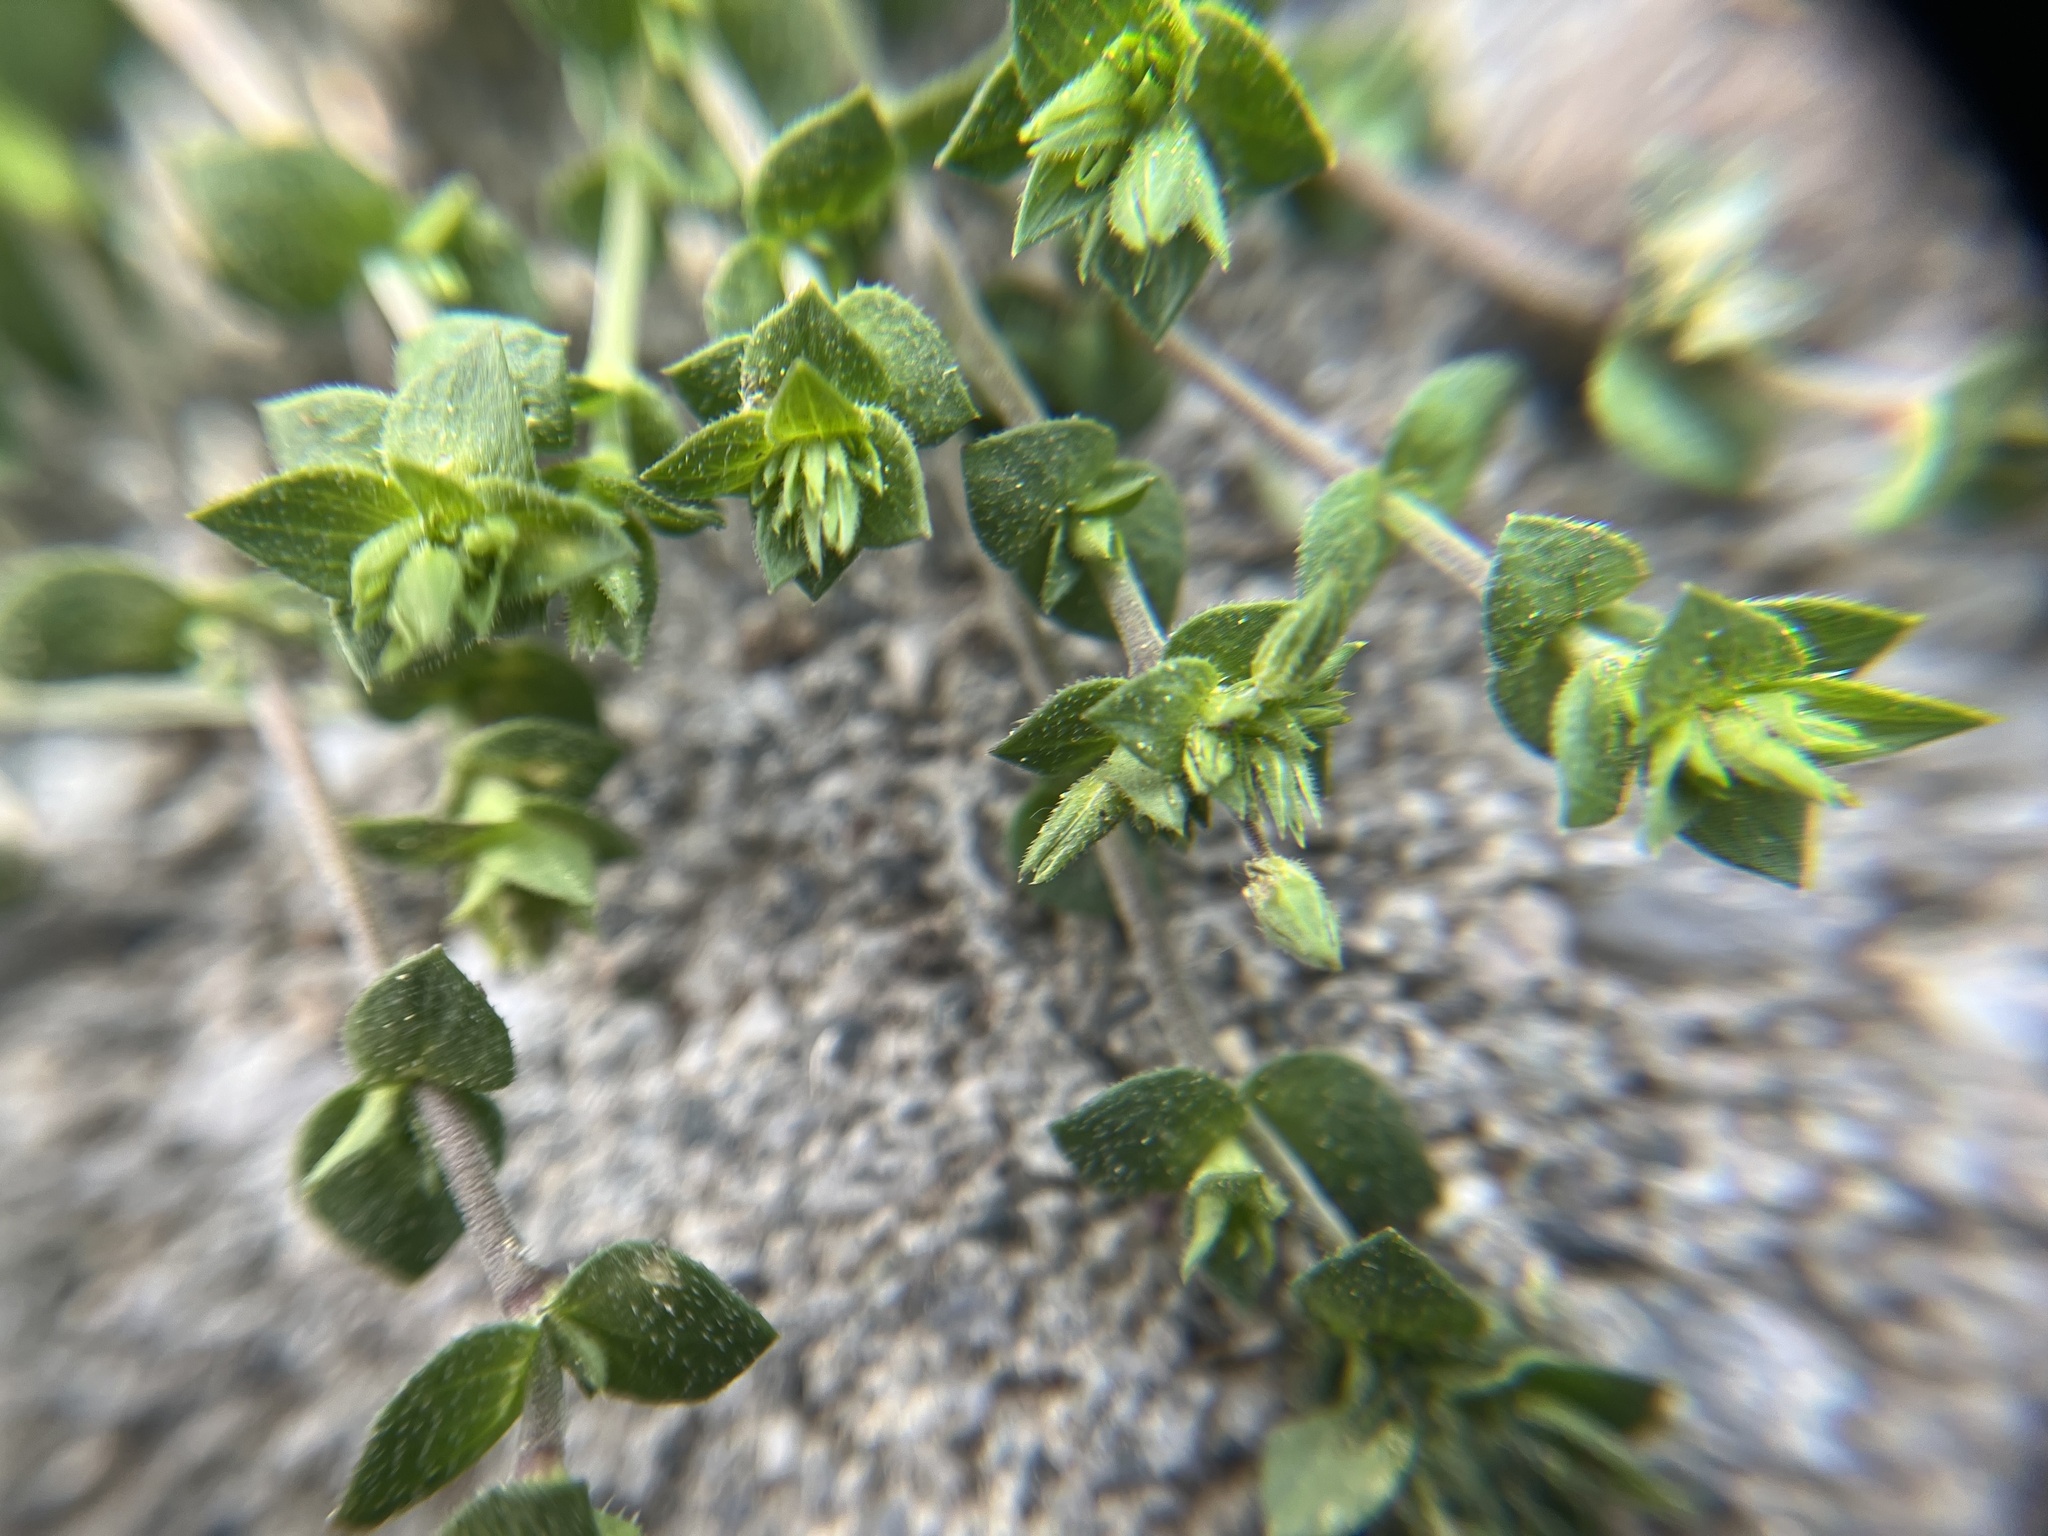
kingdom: Plantae
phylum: Tracheophyta
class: Magnoliopsida
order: Caryophyllales
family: Caryophyllaceae
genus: Arenaria
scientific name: Arenaria serpyllifolia
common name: Thyme-leaved sandwort
